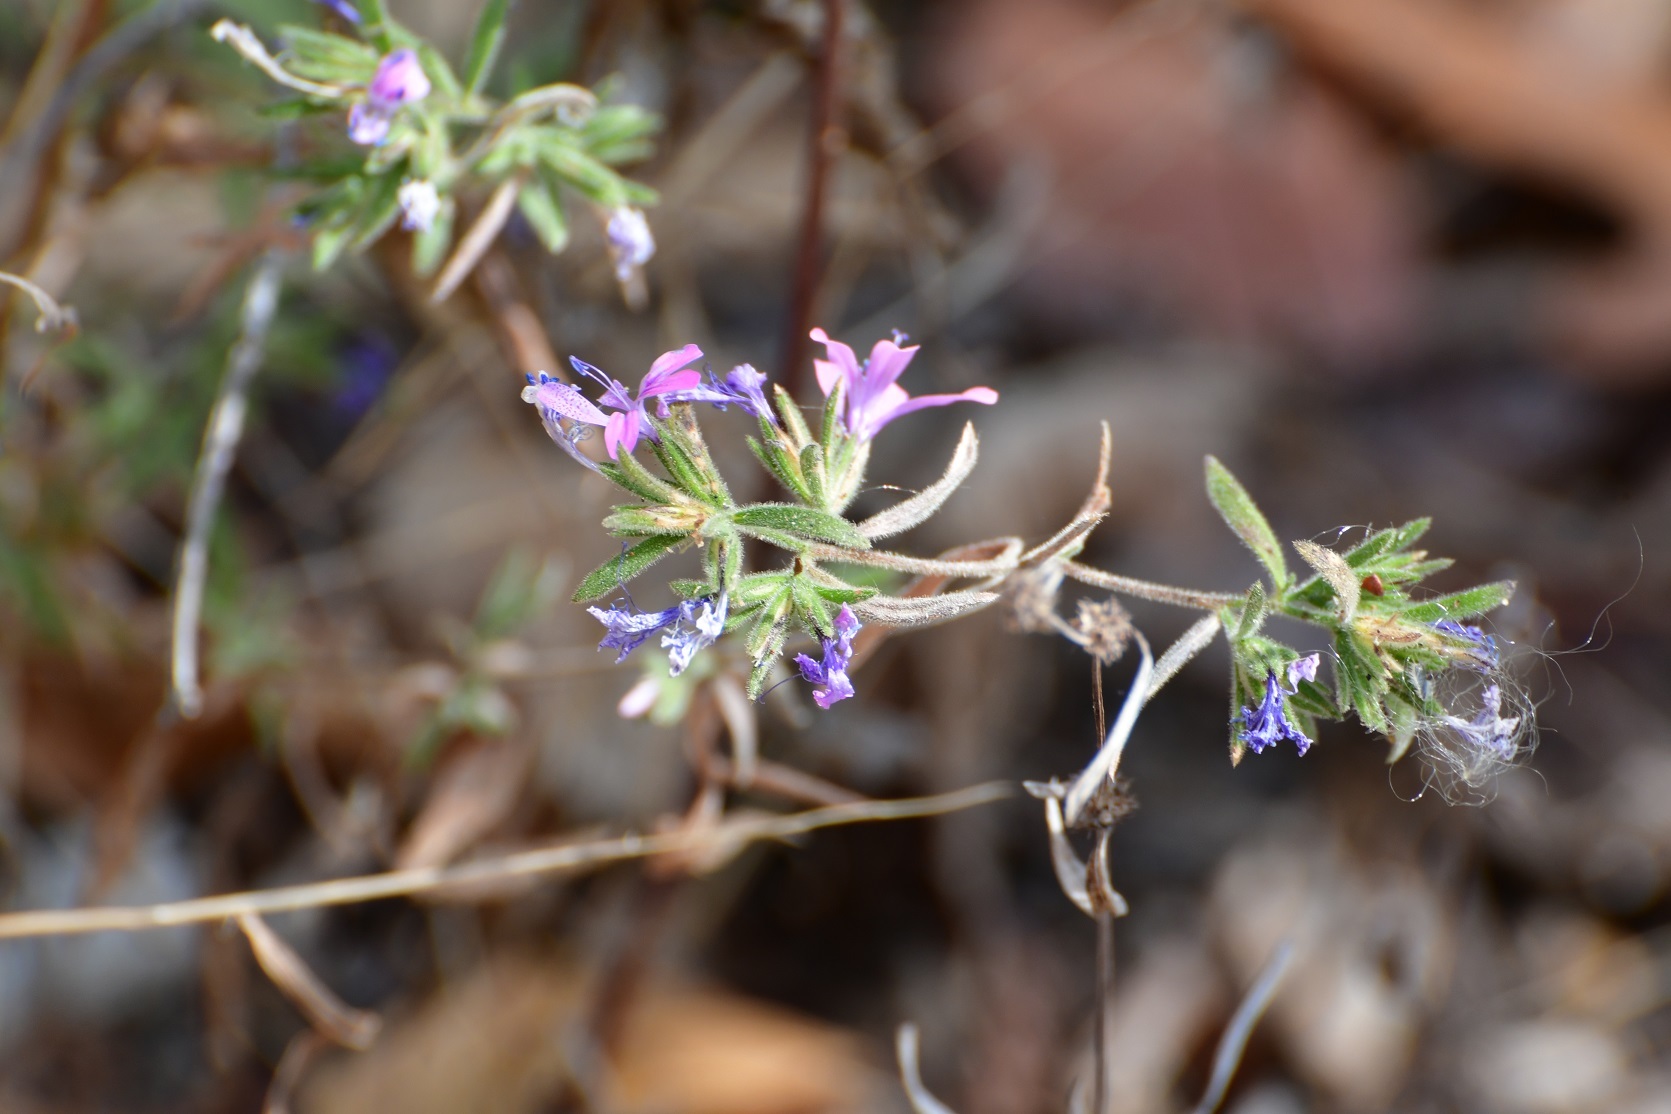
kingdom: Plantae
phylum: Tracheophyta
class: Magnoliopsida
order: Ericales
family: Polemoniaceae
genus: Loeselia
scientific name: Loeselia glandulosa
